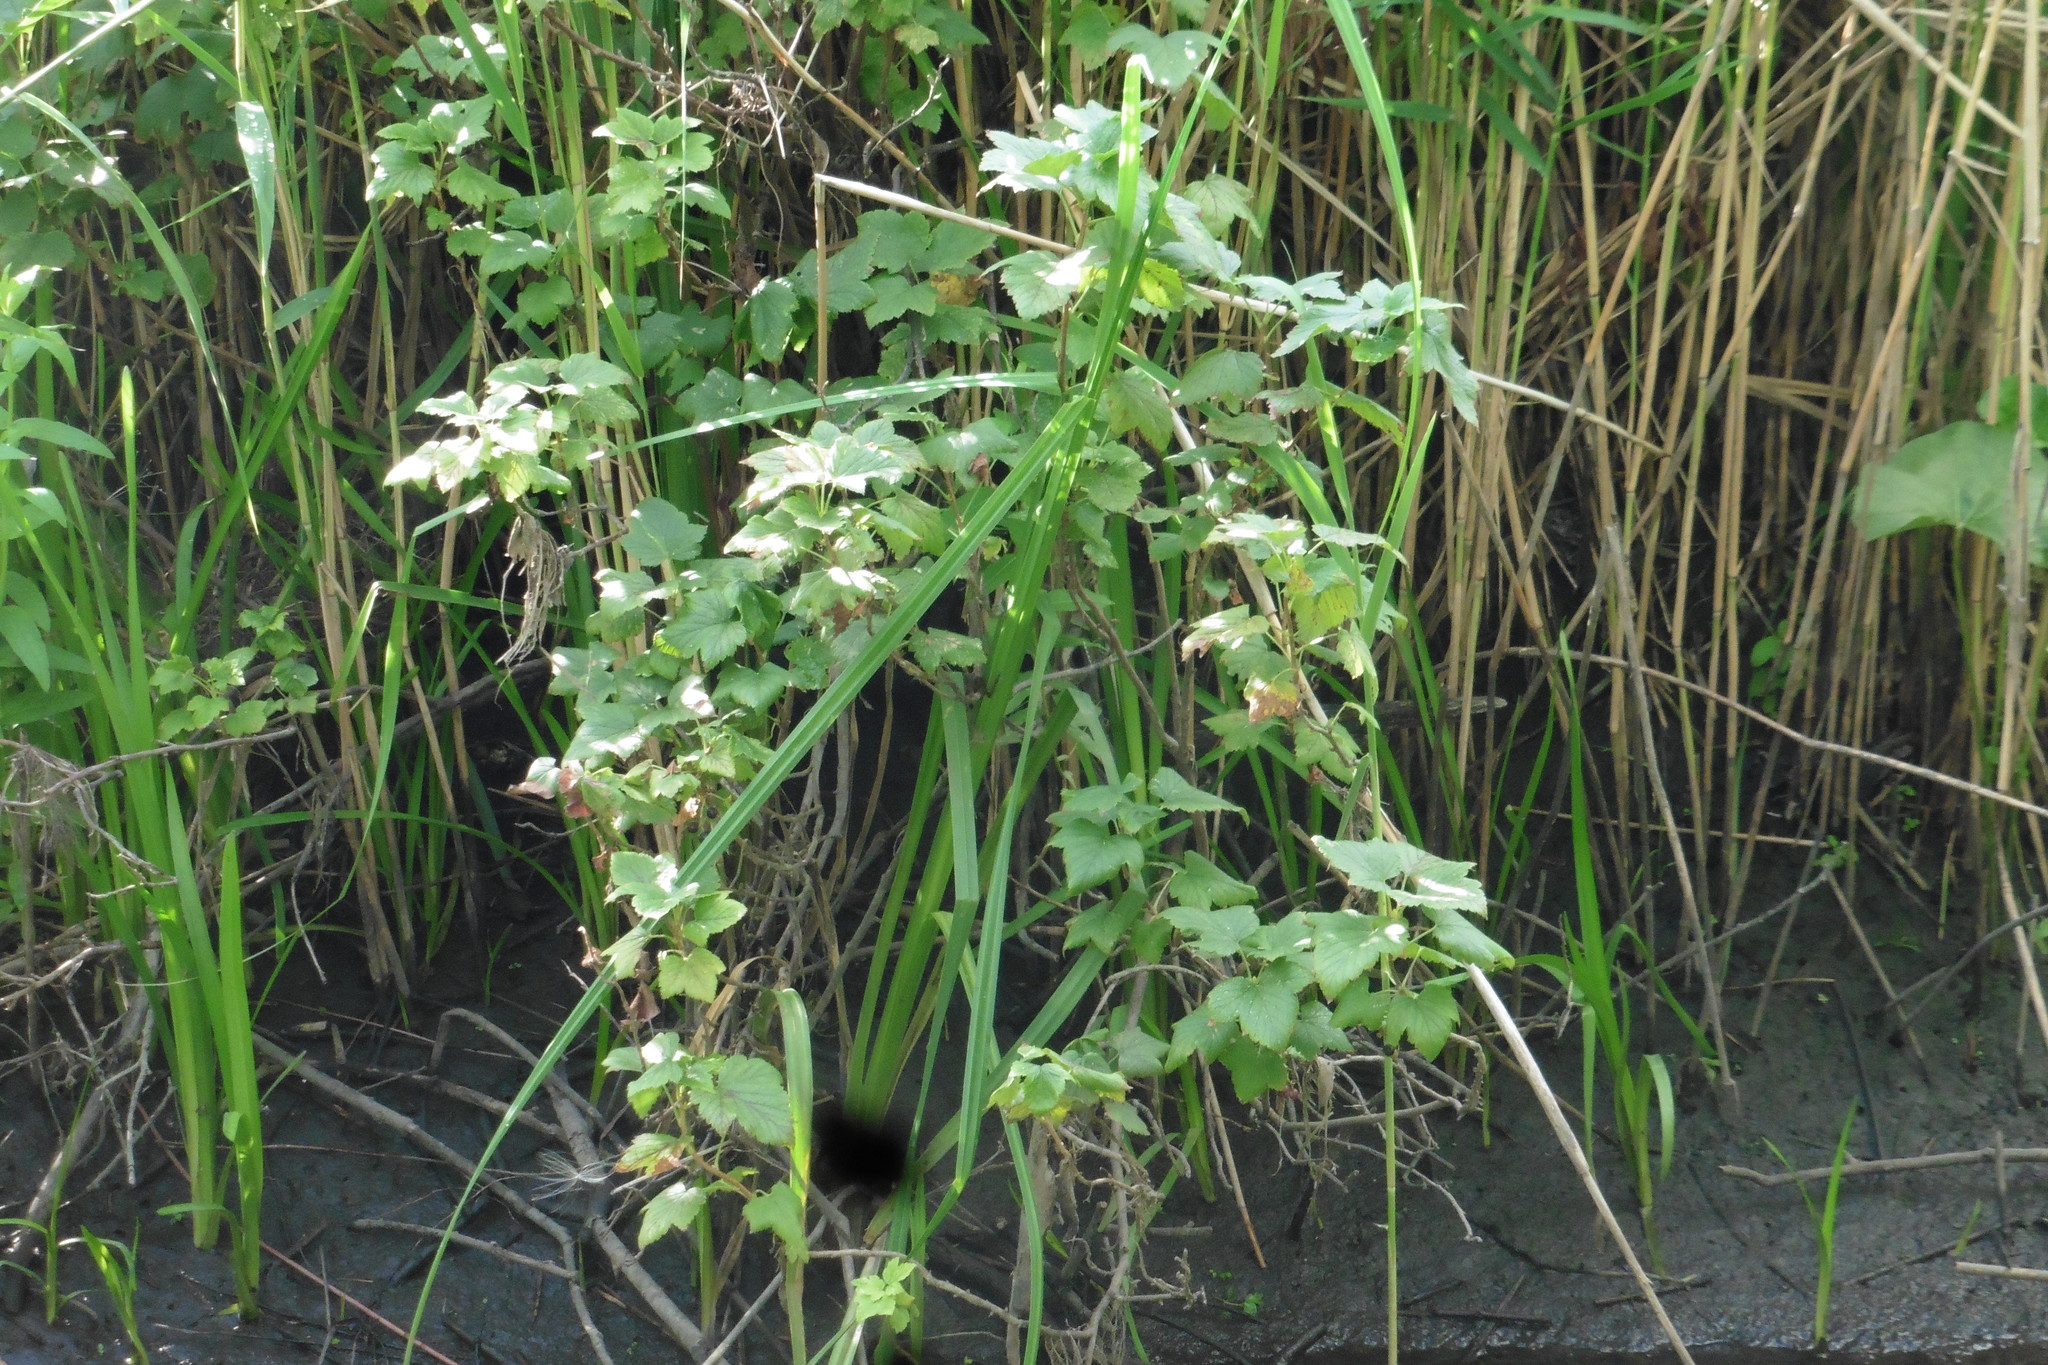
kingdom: Plantae
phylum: Tracheophyta
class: Magnoliopsida
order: Saxifragales
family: Grossulariaceae
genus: Ribes
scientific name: Ribes nigrum
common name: Black currant
